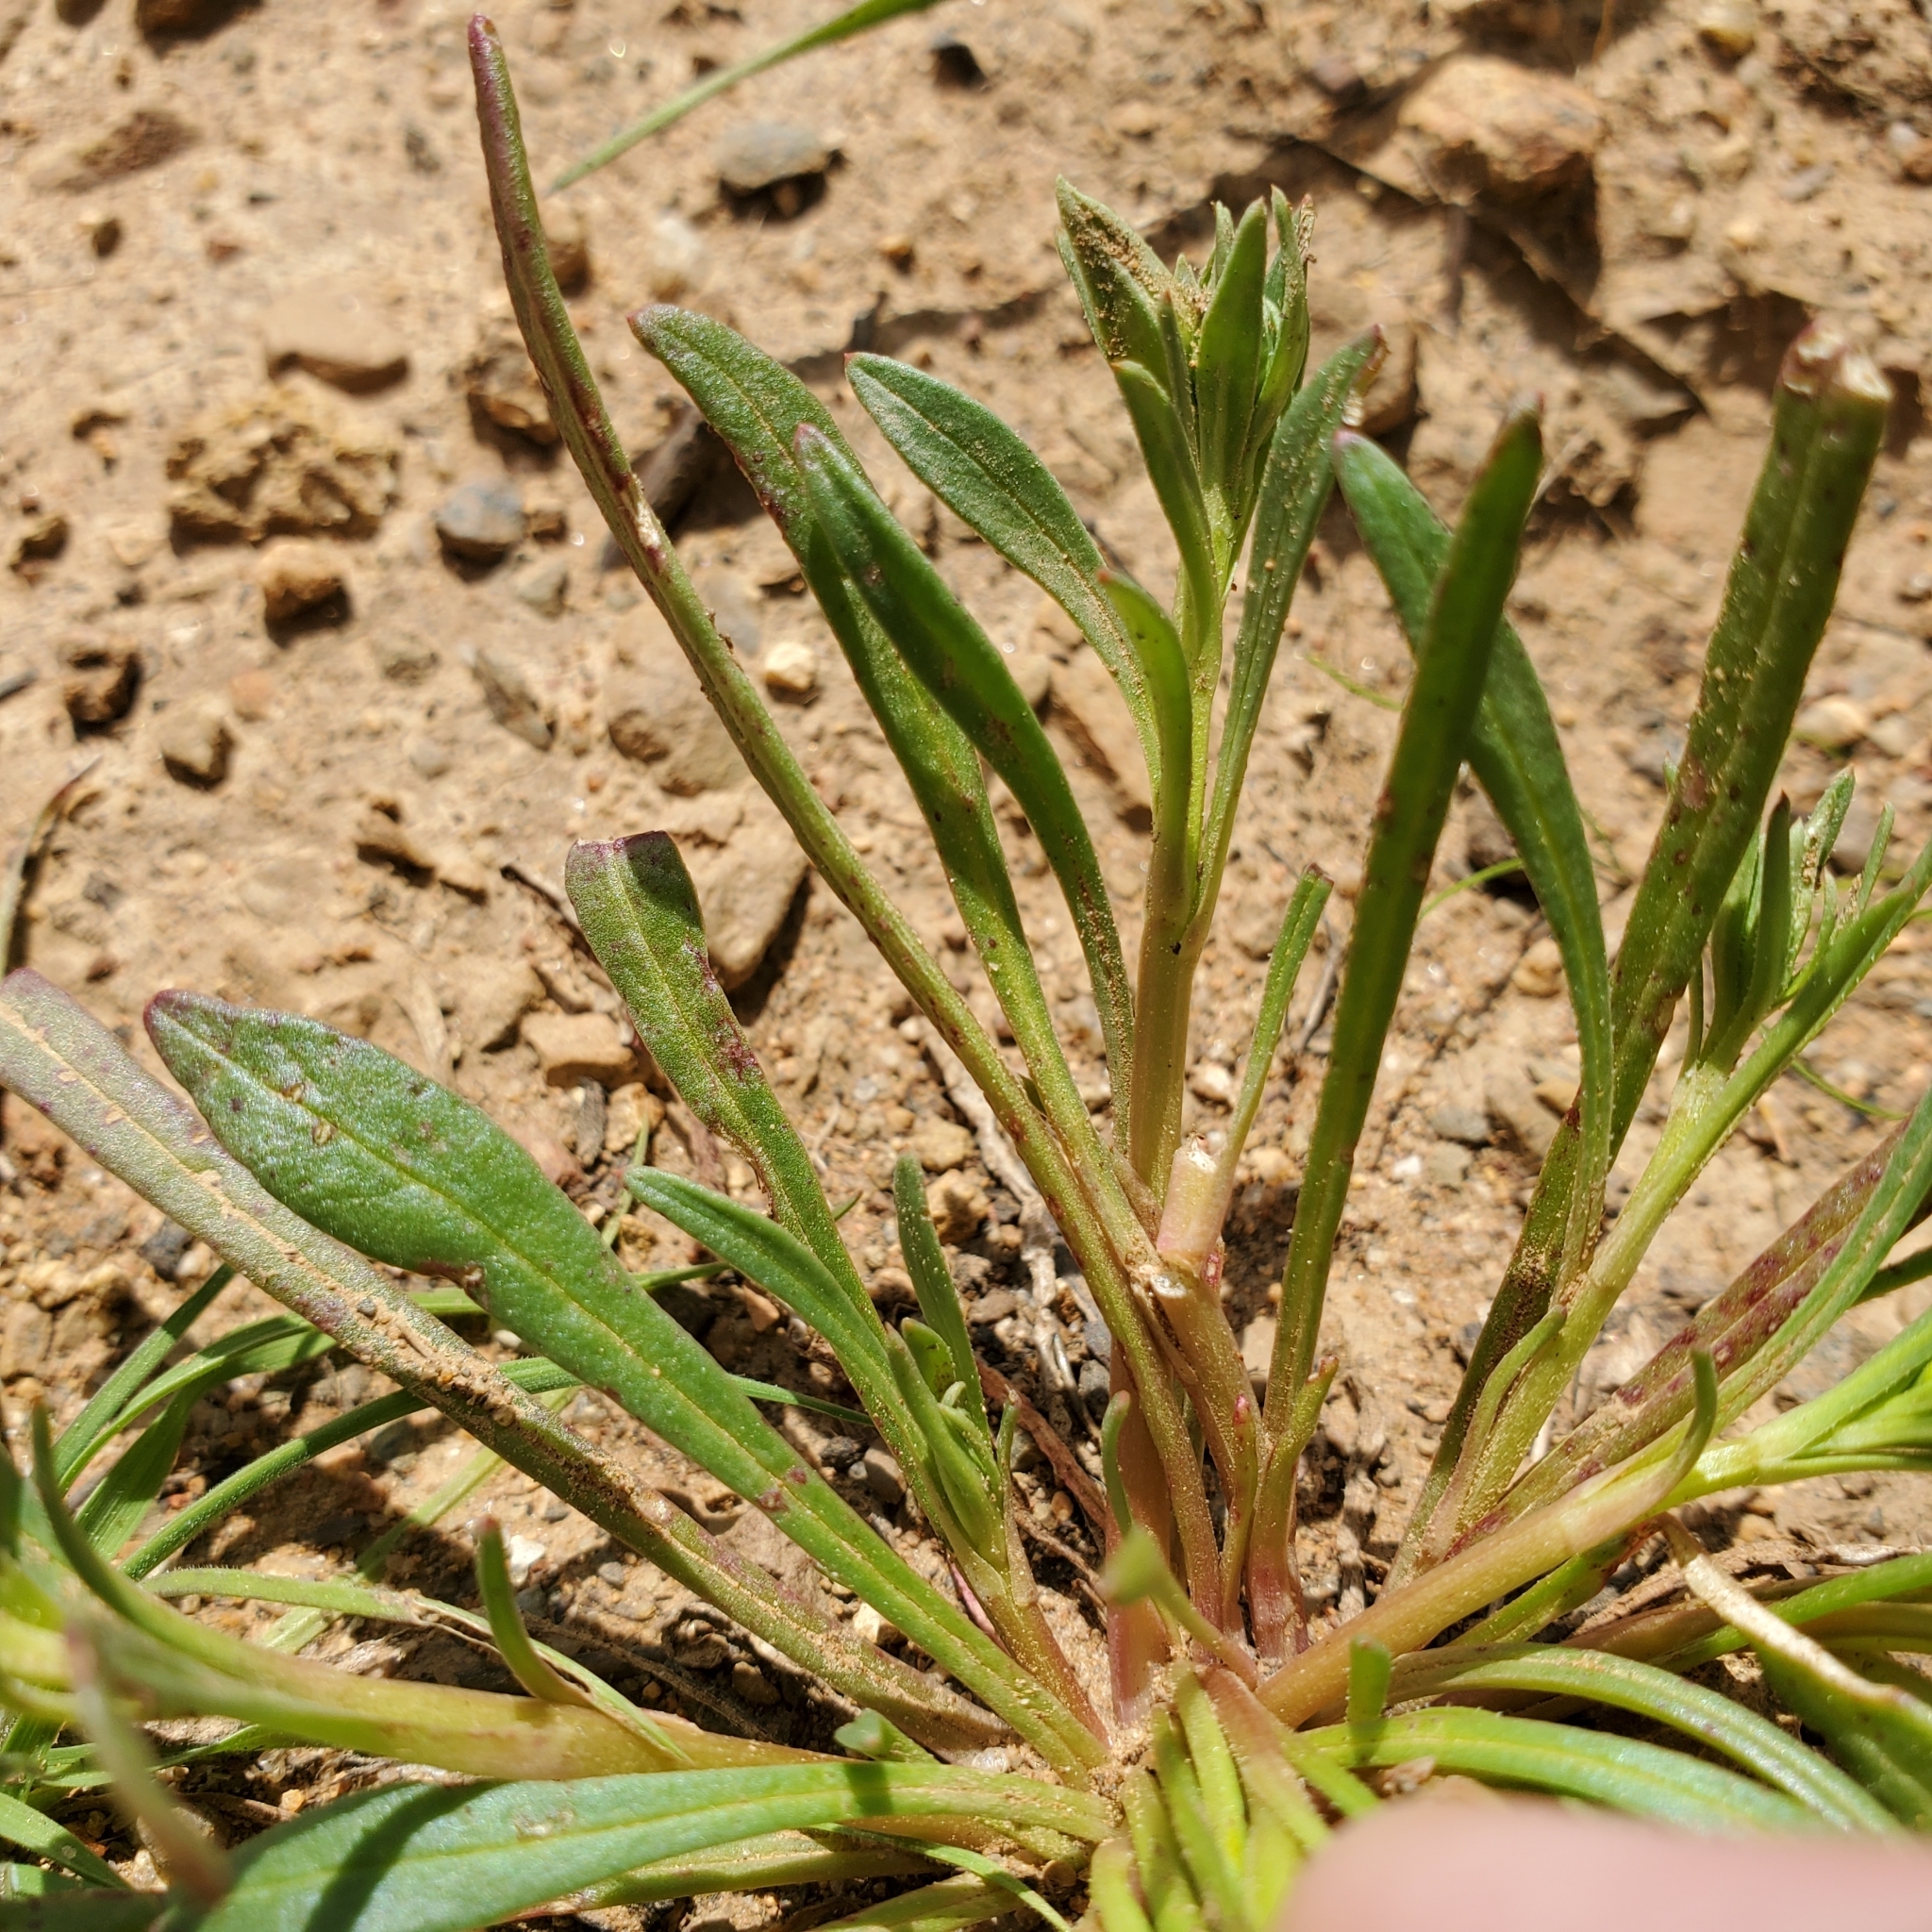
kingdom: Plantae
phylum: Tracheophyta
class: Magnoliopsida
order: Caryophyllales
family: Montiaceae
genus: Calandrinia
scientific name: Calandrinia menziesii
